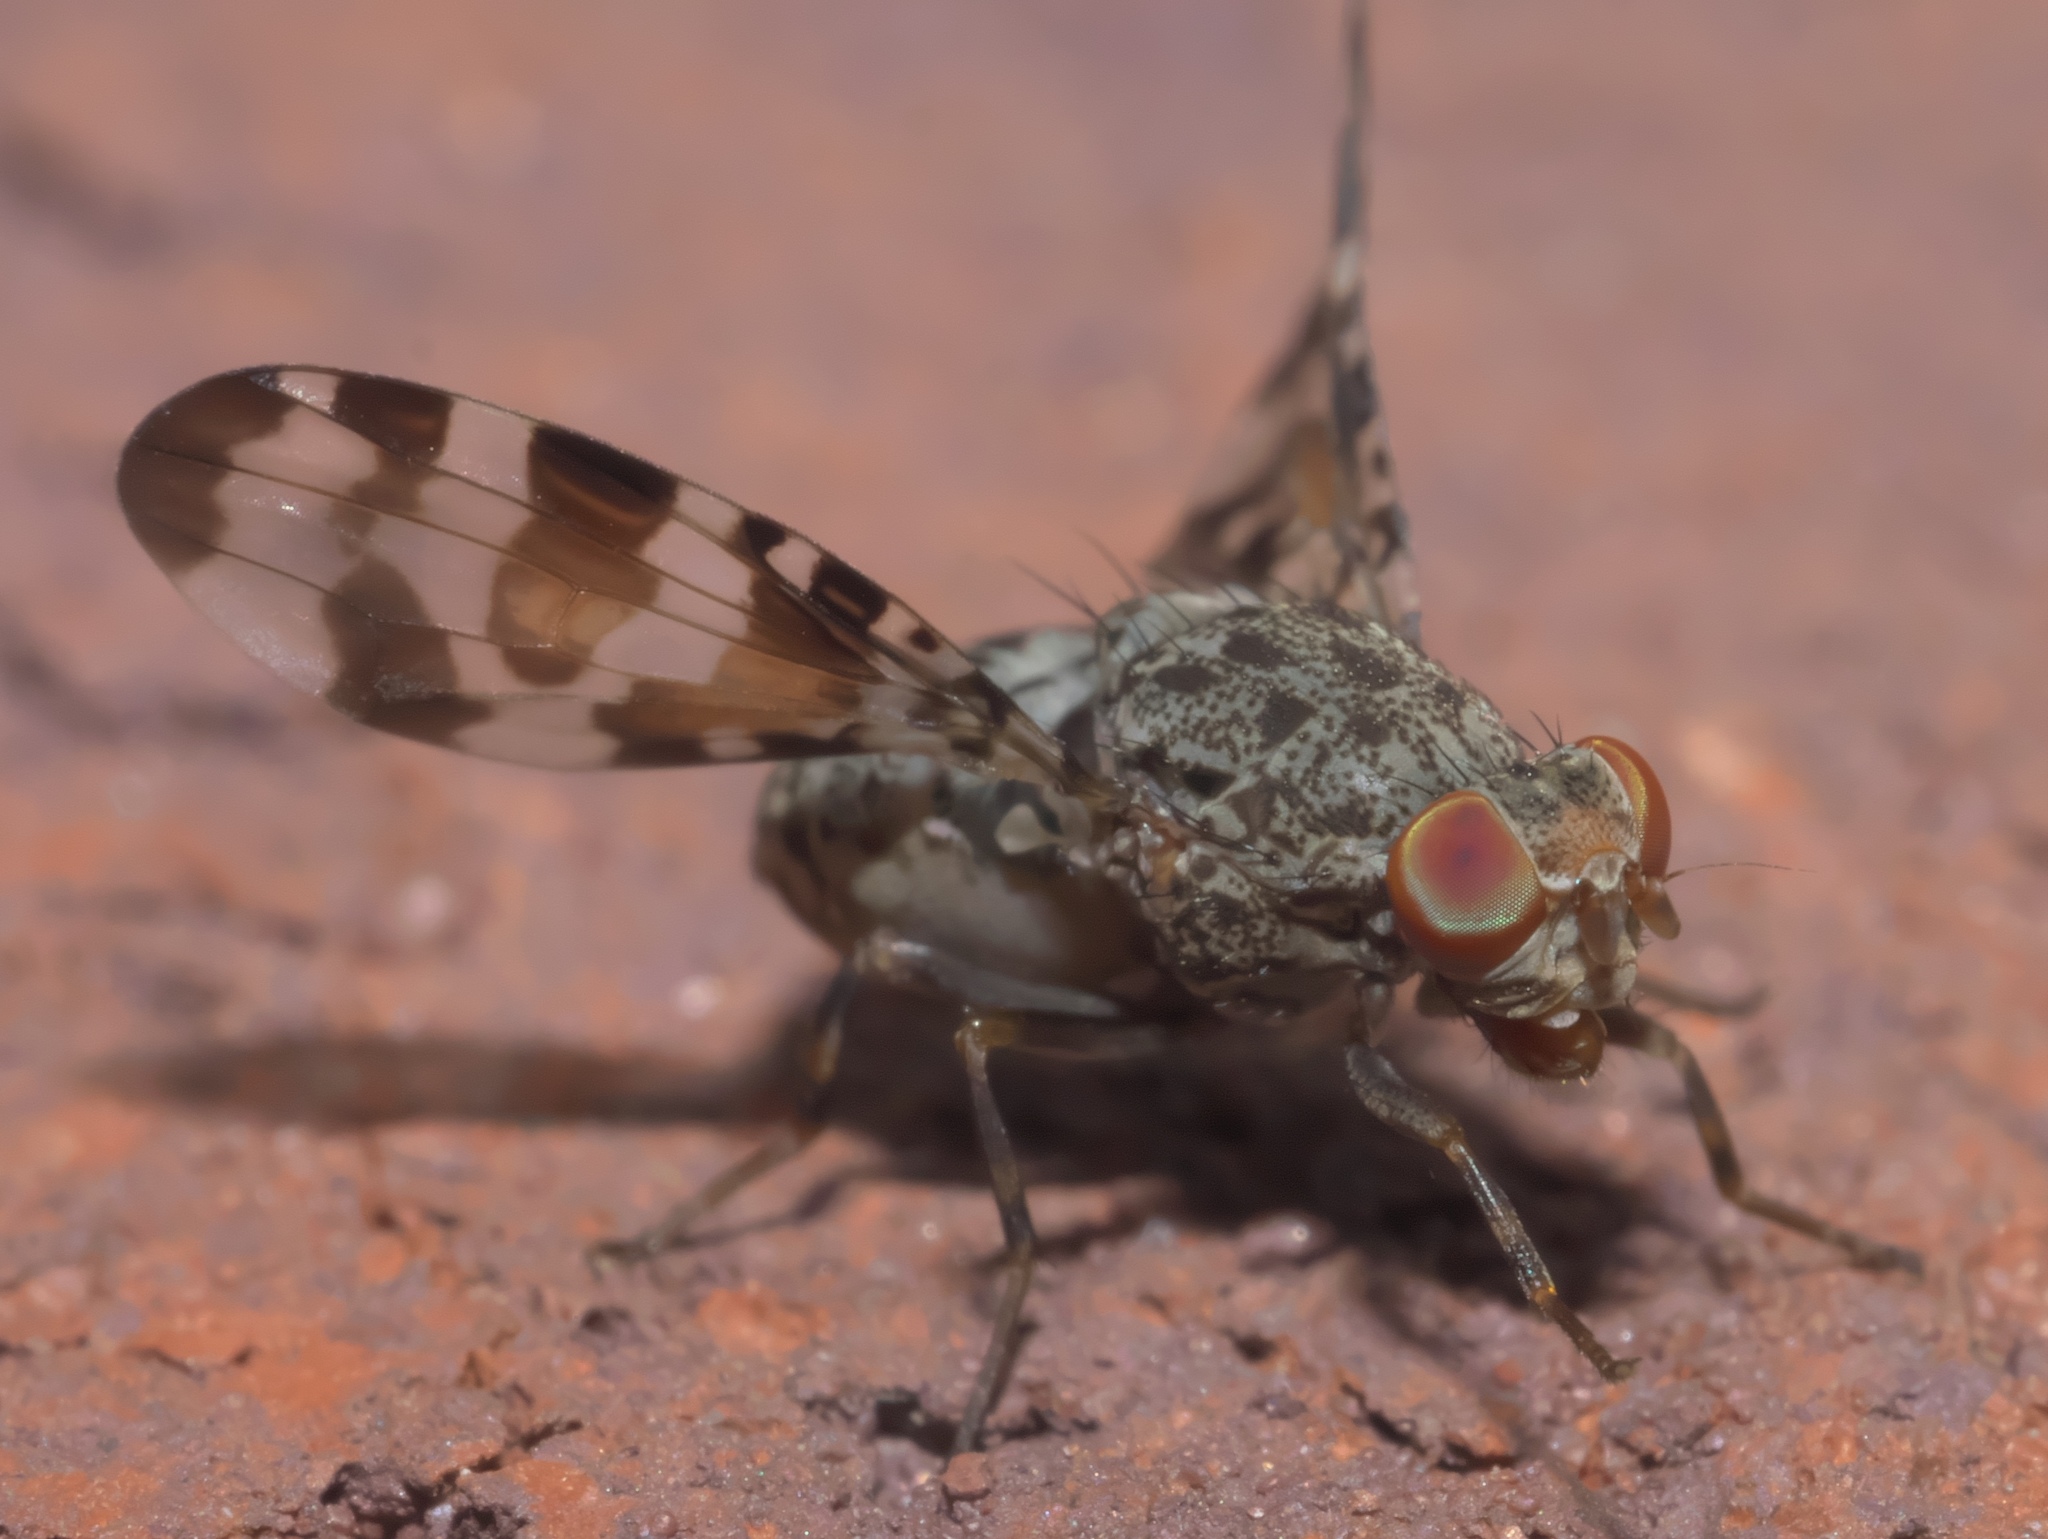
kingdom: Animalia
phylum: Arthropoda
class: Insecta
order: Diptera
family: Ulidiidae
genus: Pseudotephritis
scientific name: Pseudotephritis approximata
